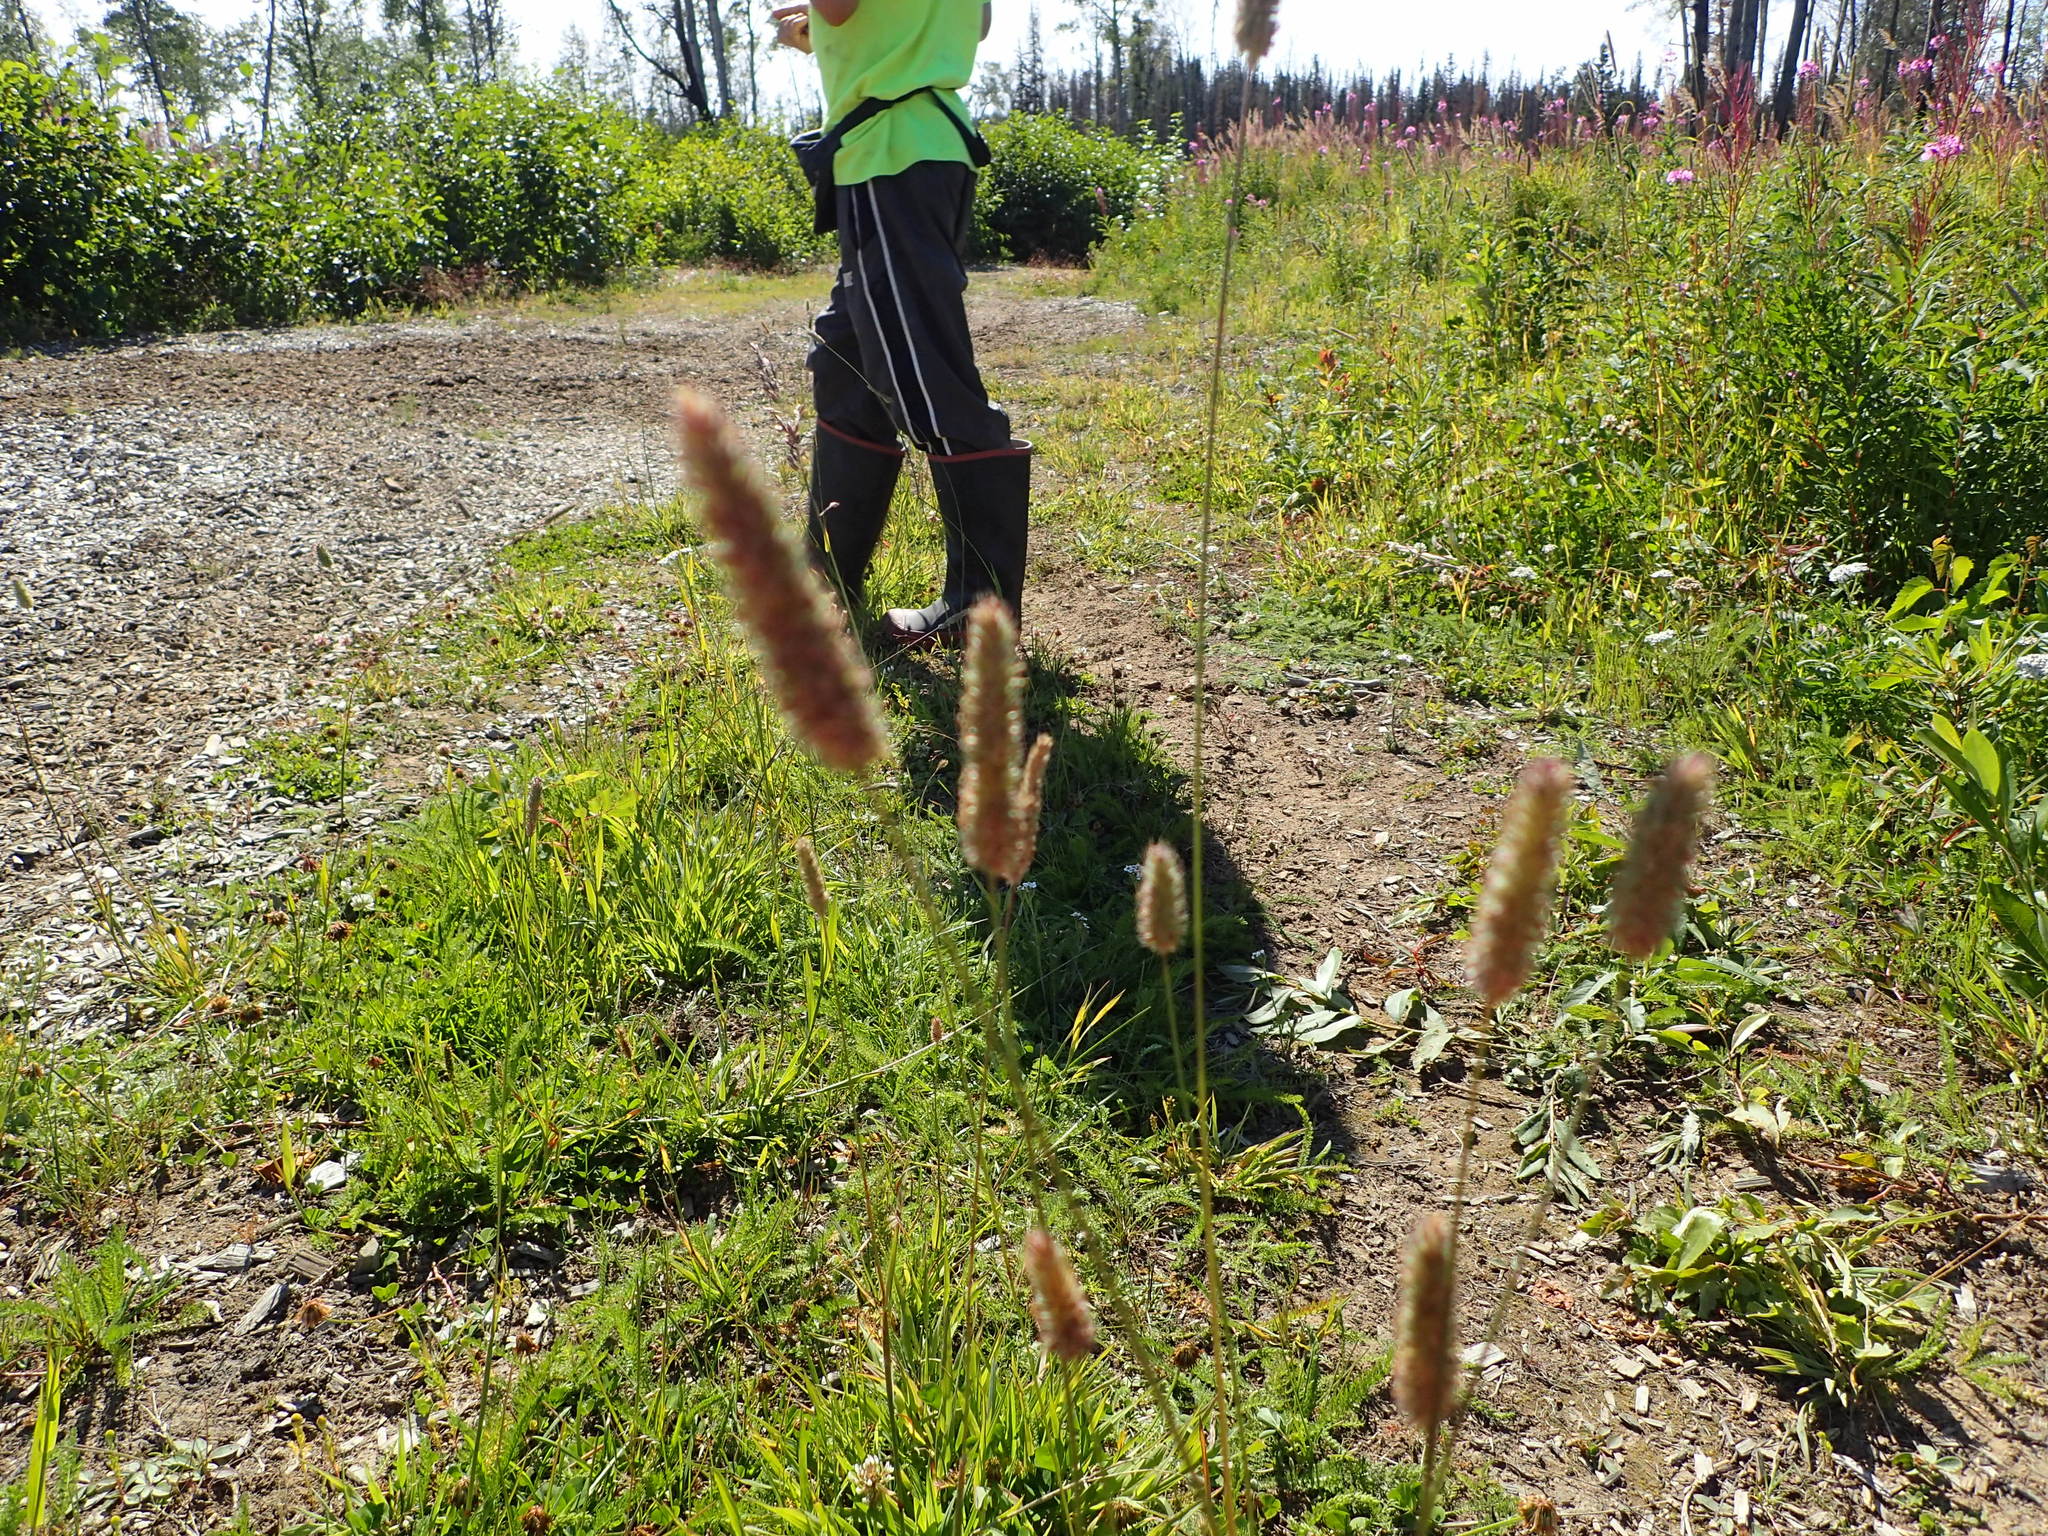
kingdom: Plantae
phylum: Tracheophyta
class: Liliopsida
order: Poales
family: Poaceae
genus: Phleum
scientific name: Phleum pratense
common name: Timothy grass
